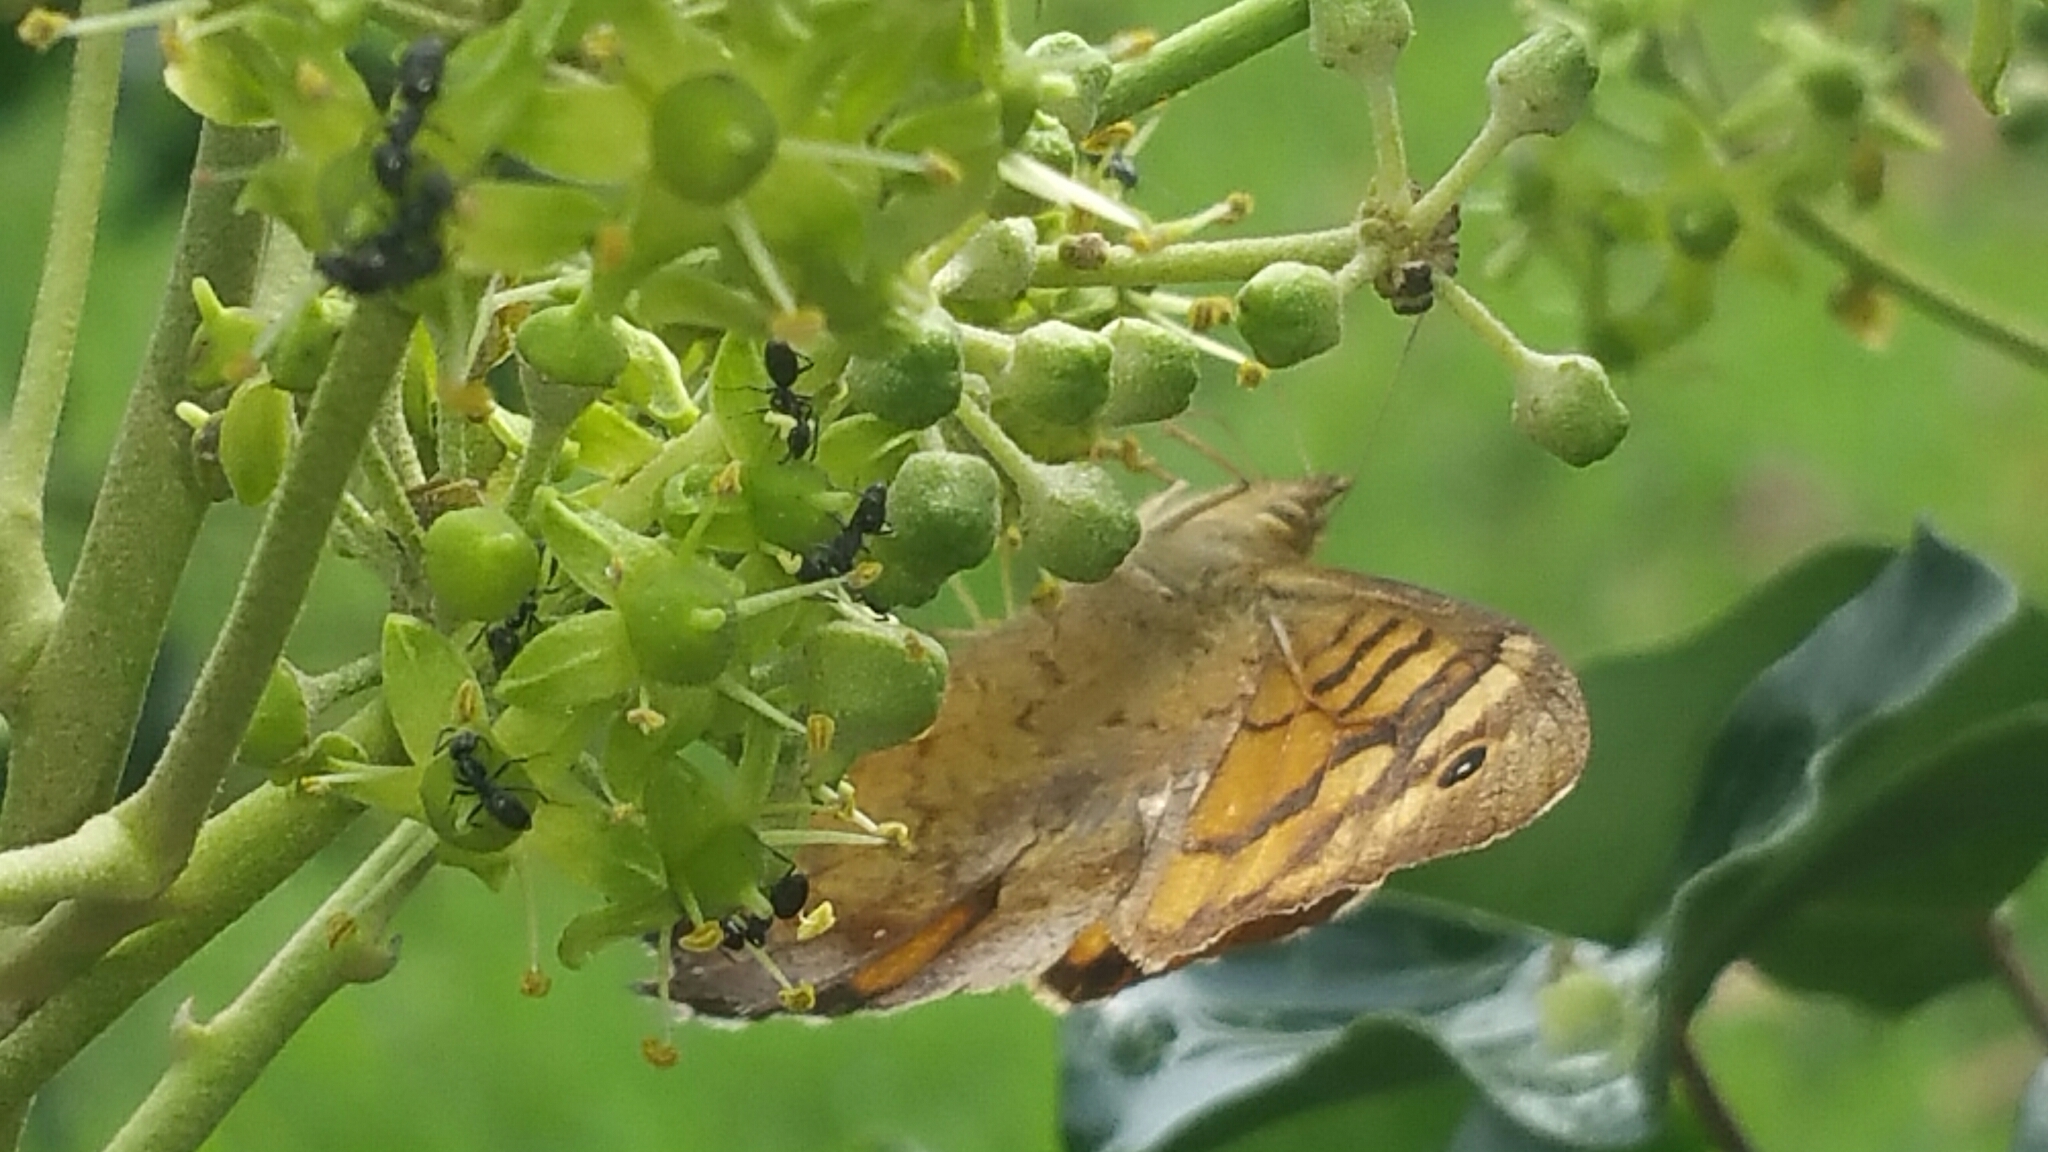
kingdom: Animalia
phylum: Arthropoda
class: Insecta
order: Lepidoptera
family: Nymphalidae
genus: Pararge
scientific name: Pararge aegeria
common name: Speckled wood
